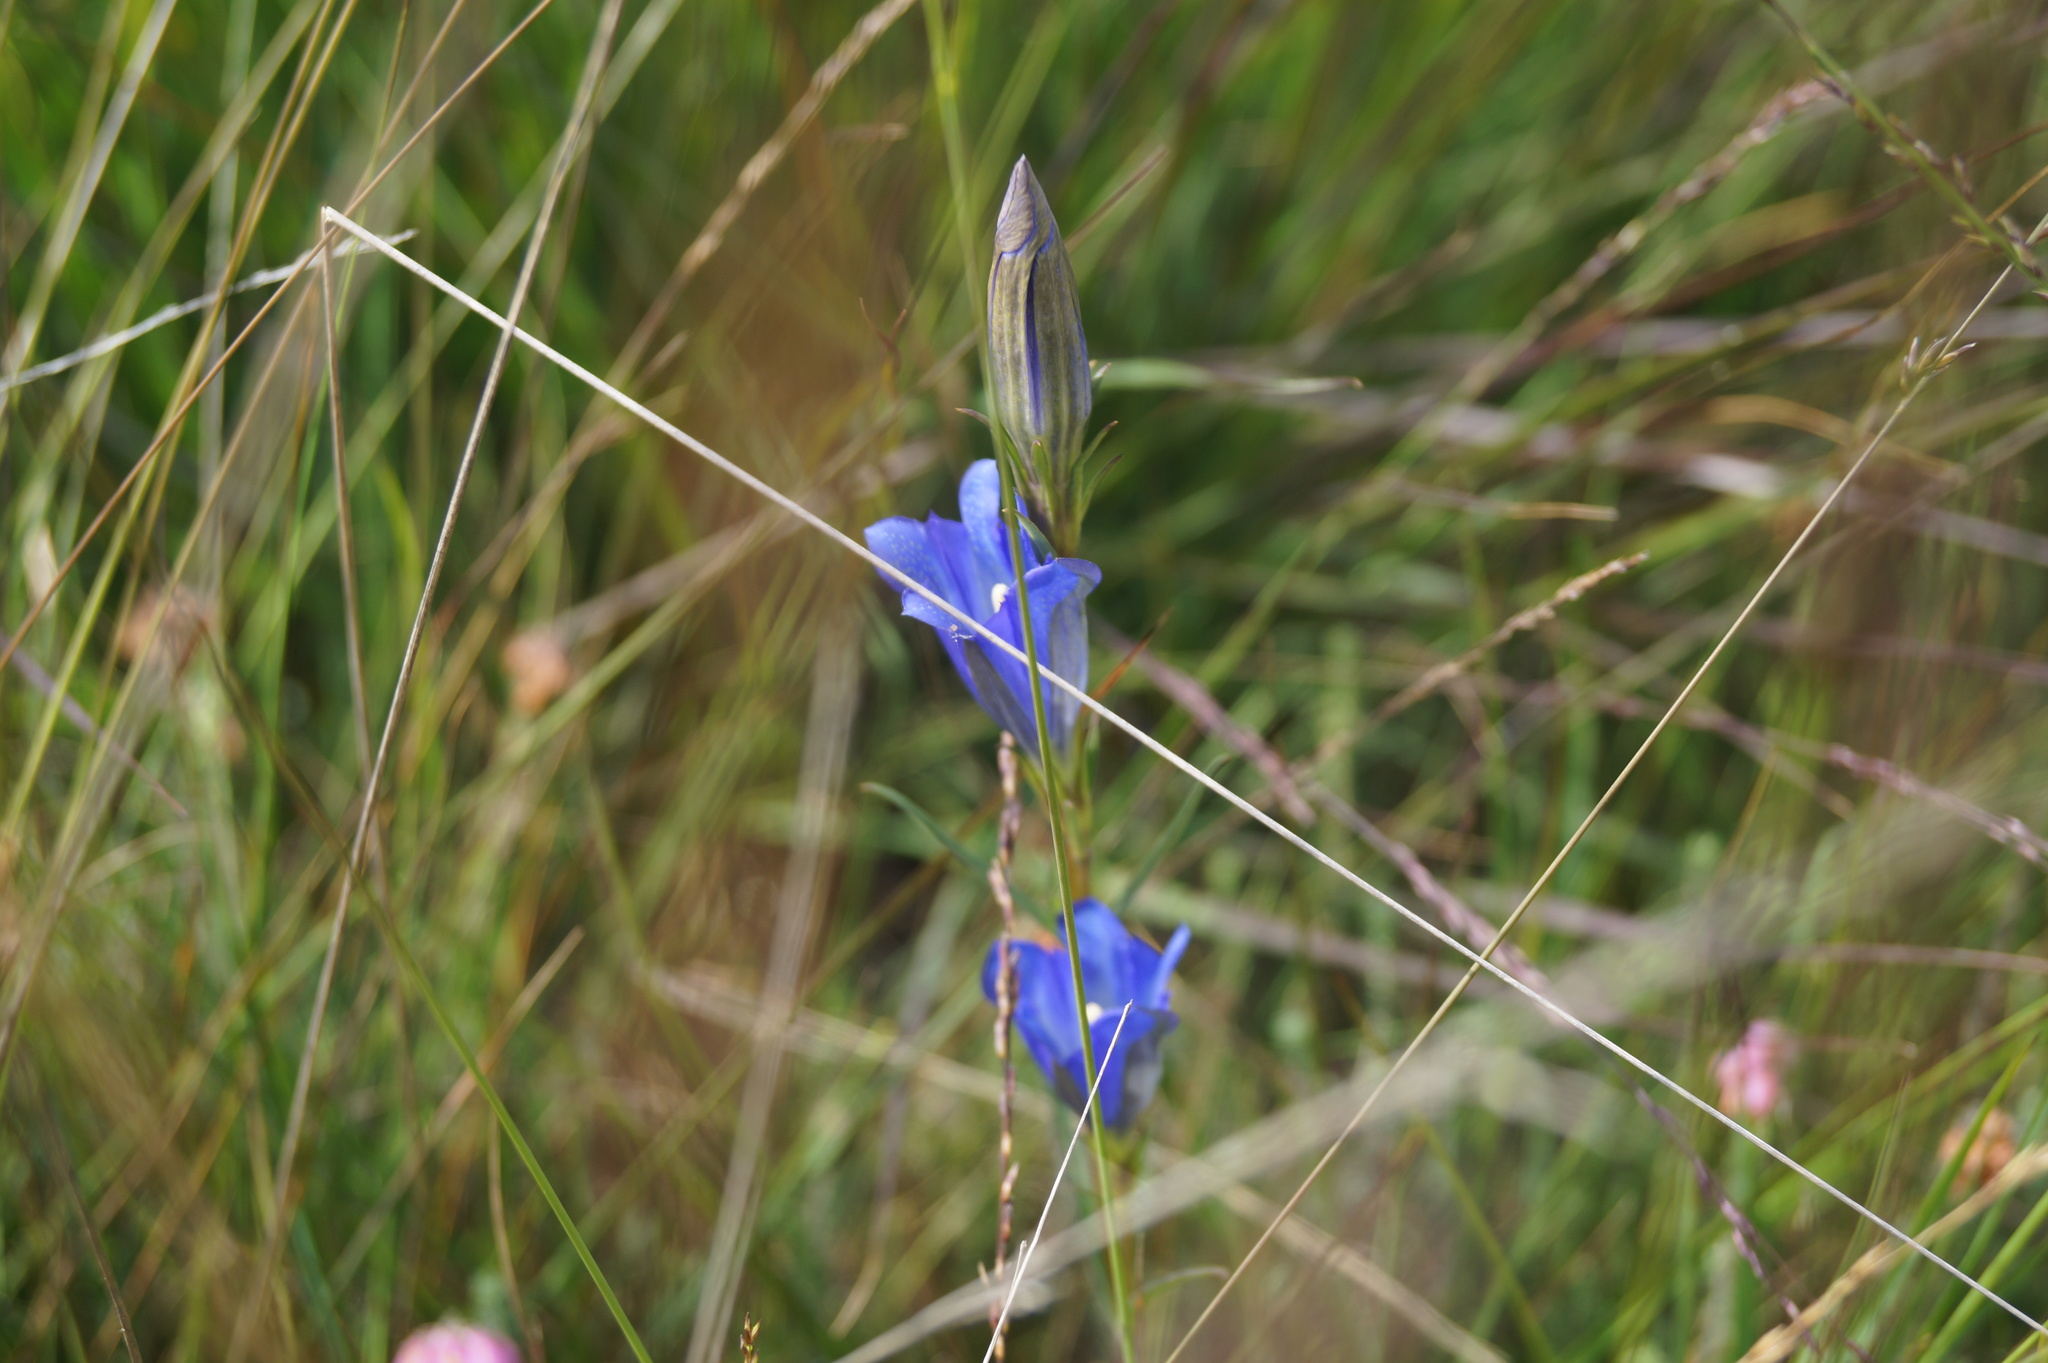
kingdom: Plantae
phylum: Tracheophyta
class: Magnoliopsida
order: Gentianales
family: Gentianaceae
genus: Gentiana
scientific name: Gentiana pneumonanthe
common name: Marsh gentian
